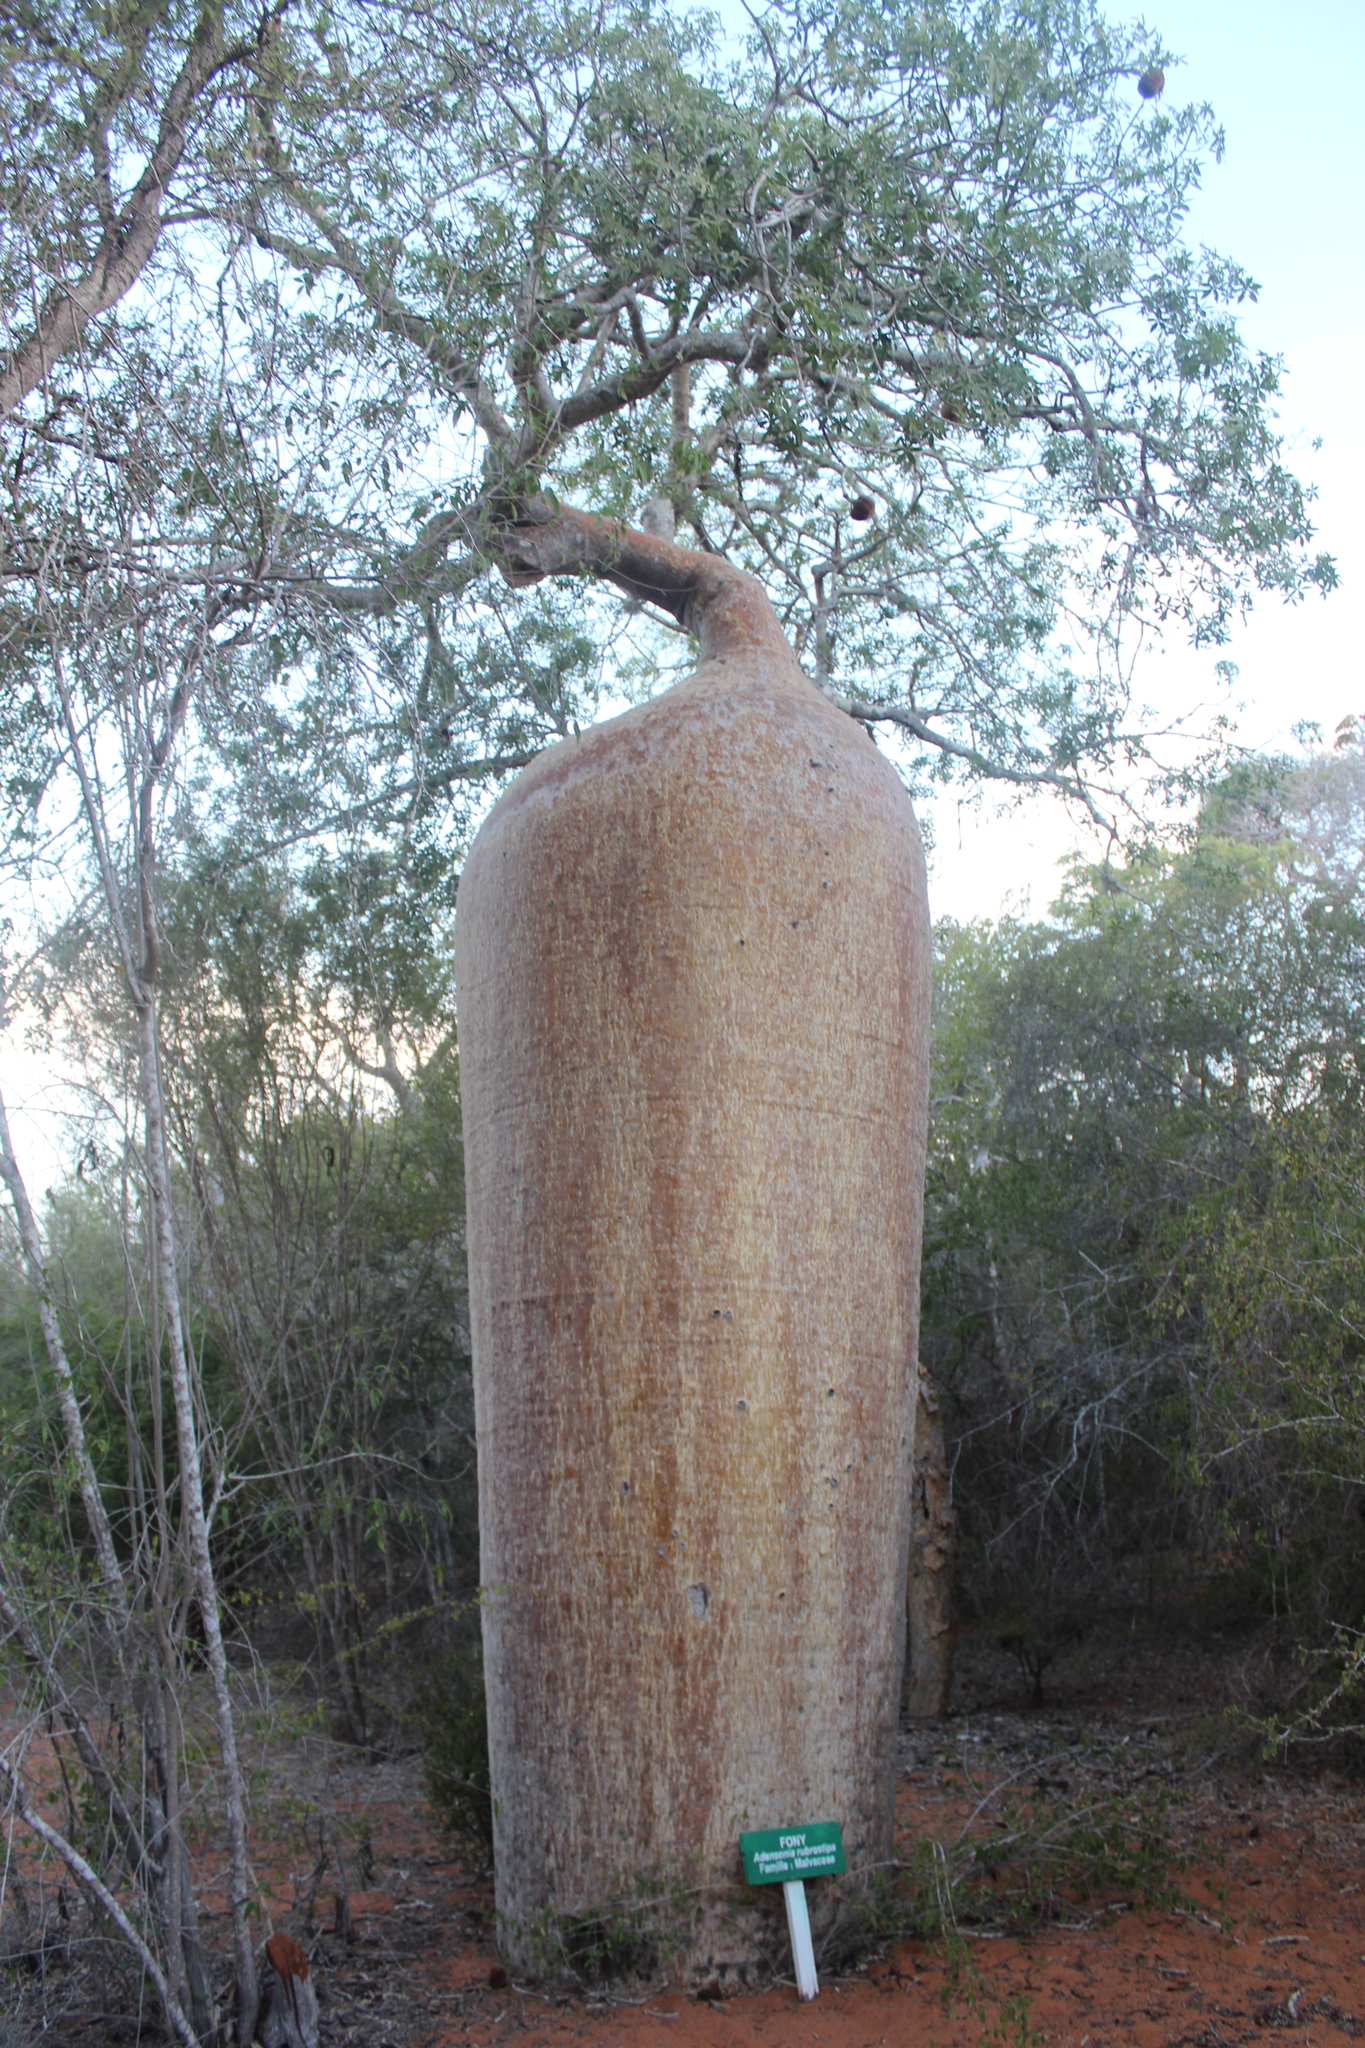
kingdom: Plantae
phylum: Tracheophyta
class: Magnoliopsida
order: Malvales
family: Malvaceae
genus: Adansonia
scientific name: Adansonia rubrostipa
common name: Fony baobab
